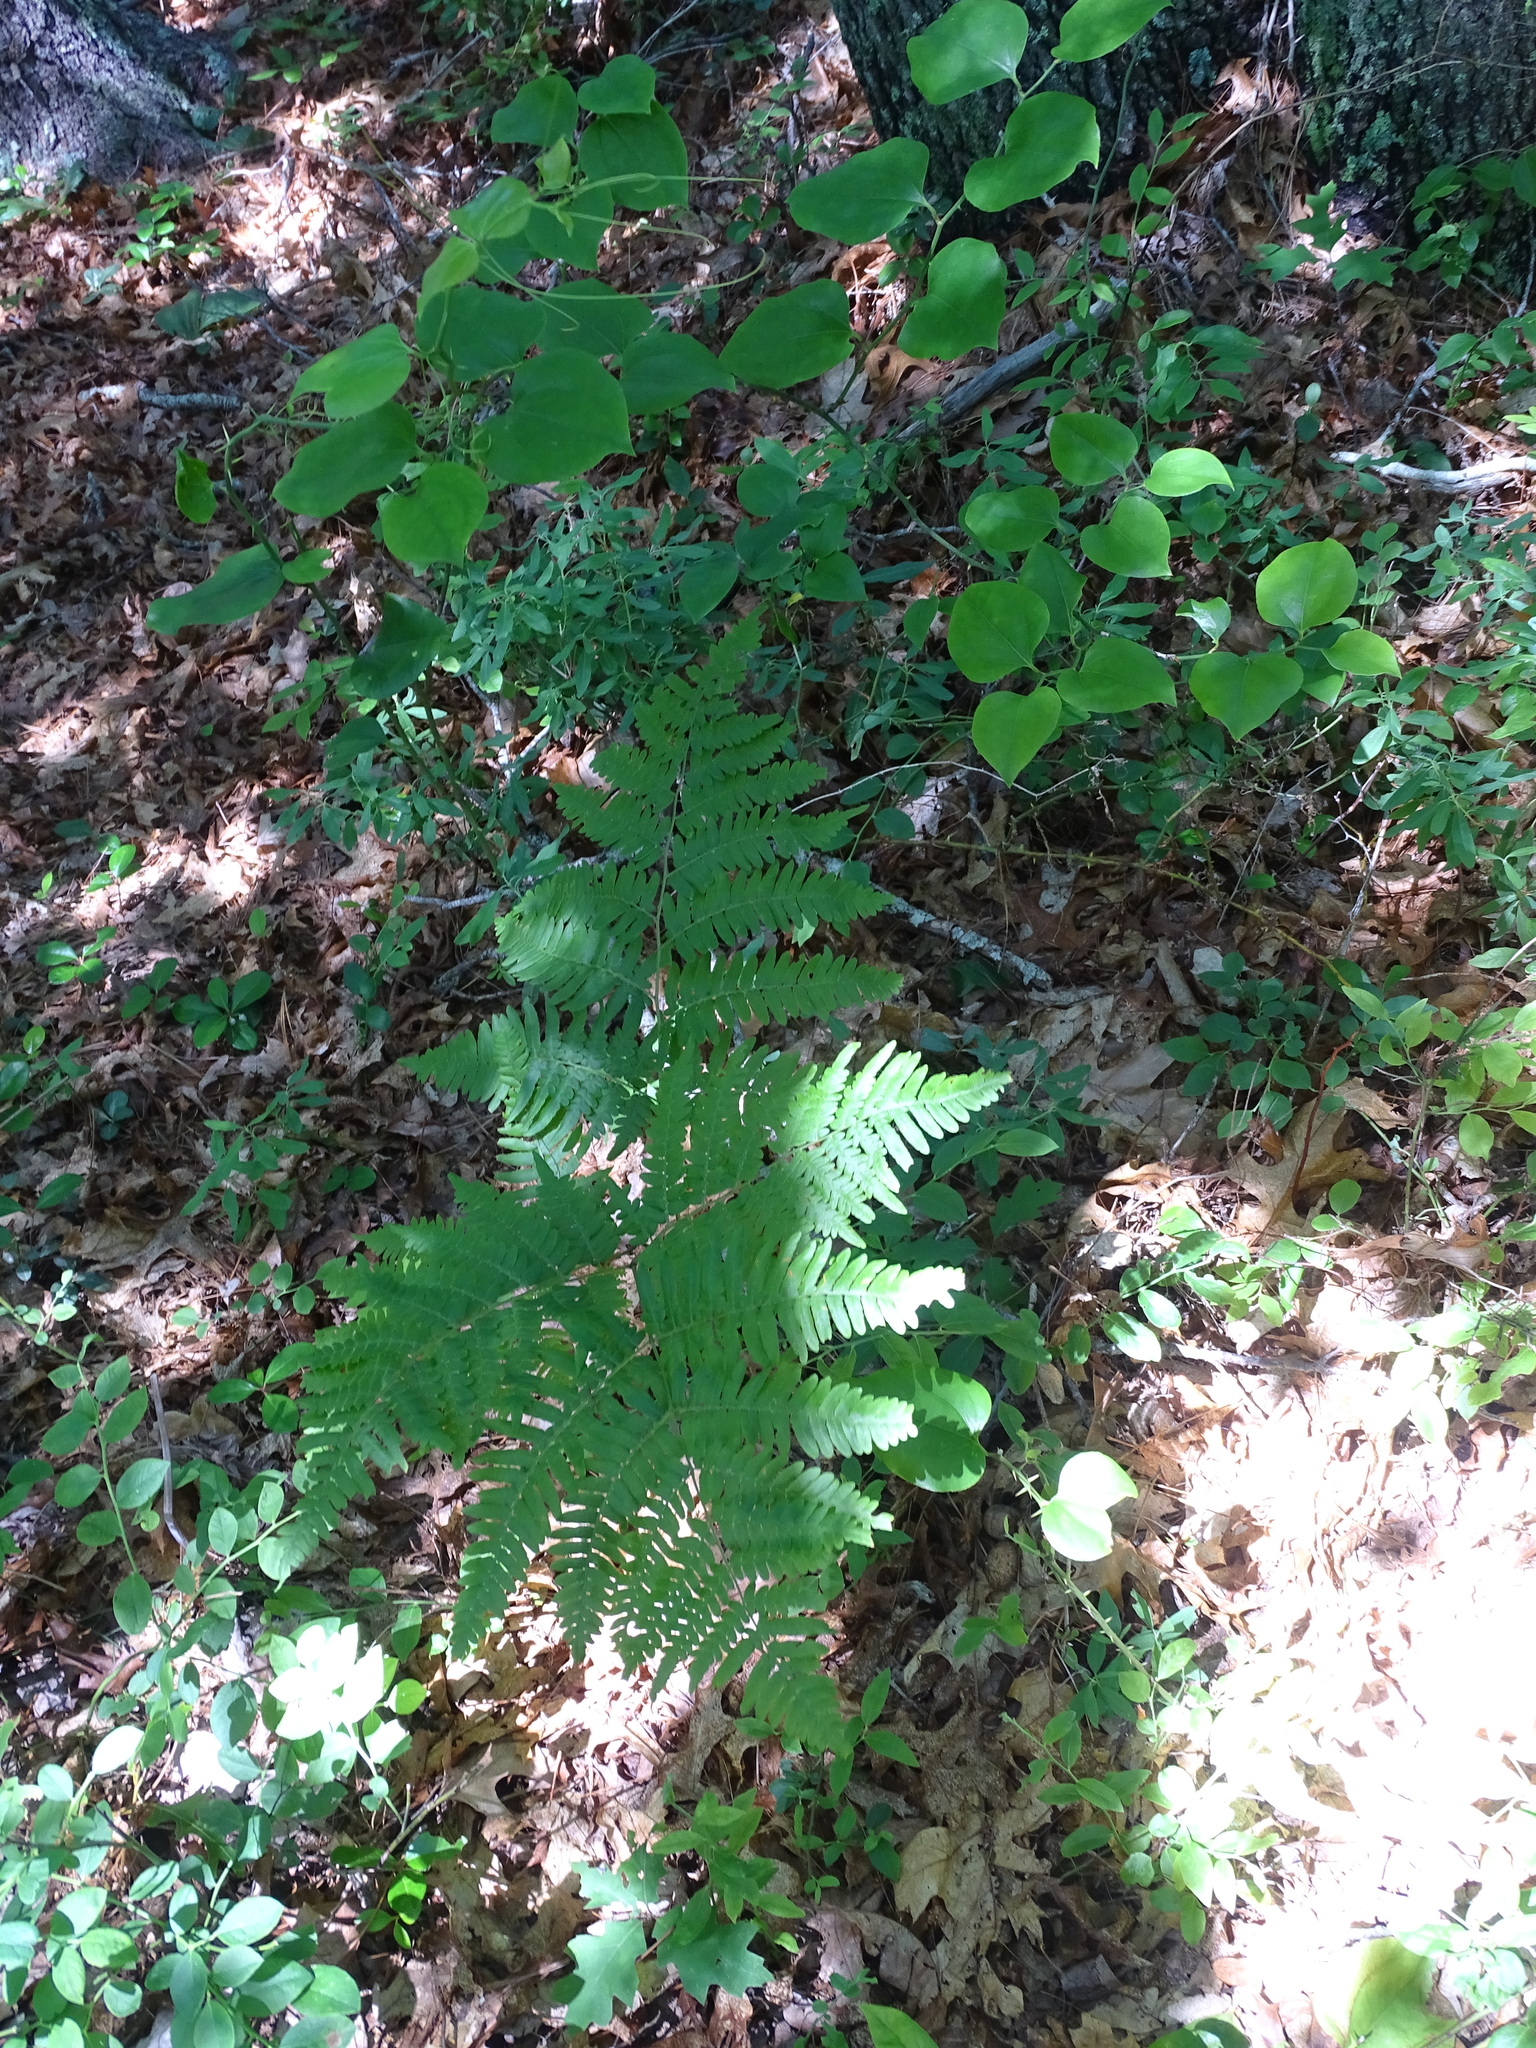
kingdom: Plantae
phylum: Tracheophyta
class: Polypodiopsida
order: Polypodiales
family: Dennstaedtiaceae
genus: Pteridium
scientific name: Pteridium aquilinum
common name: Bracken
